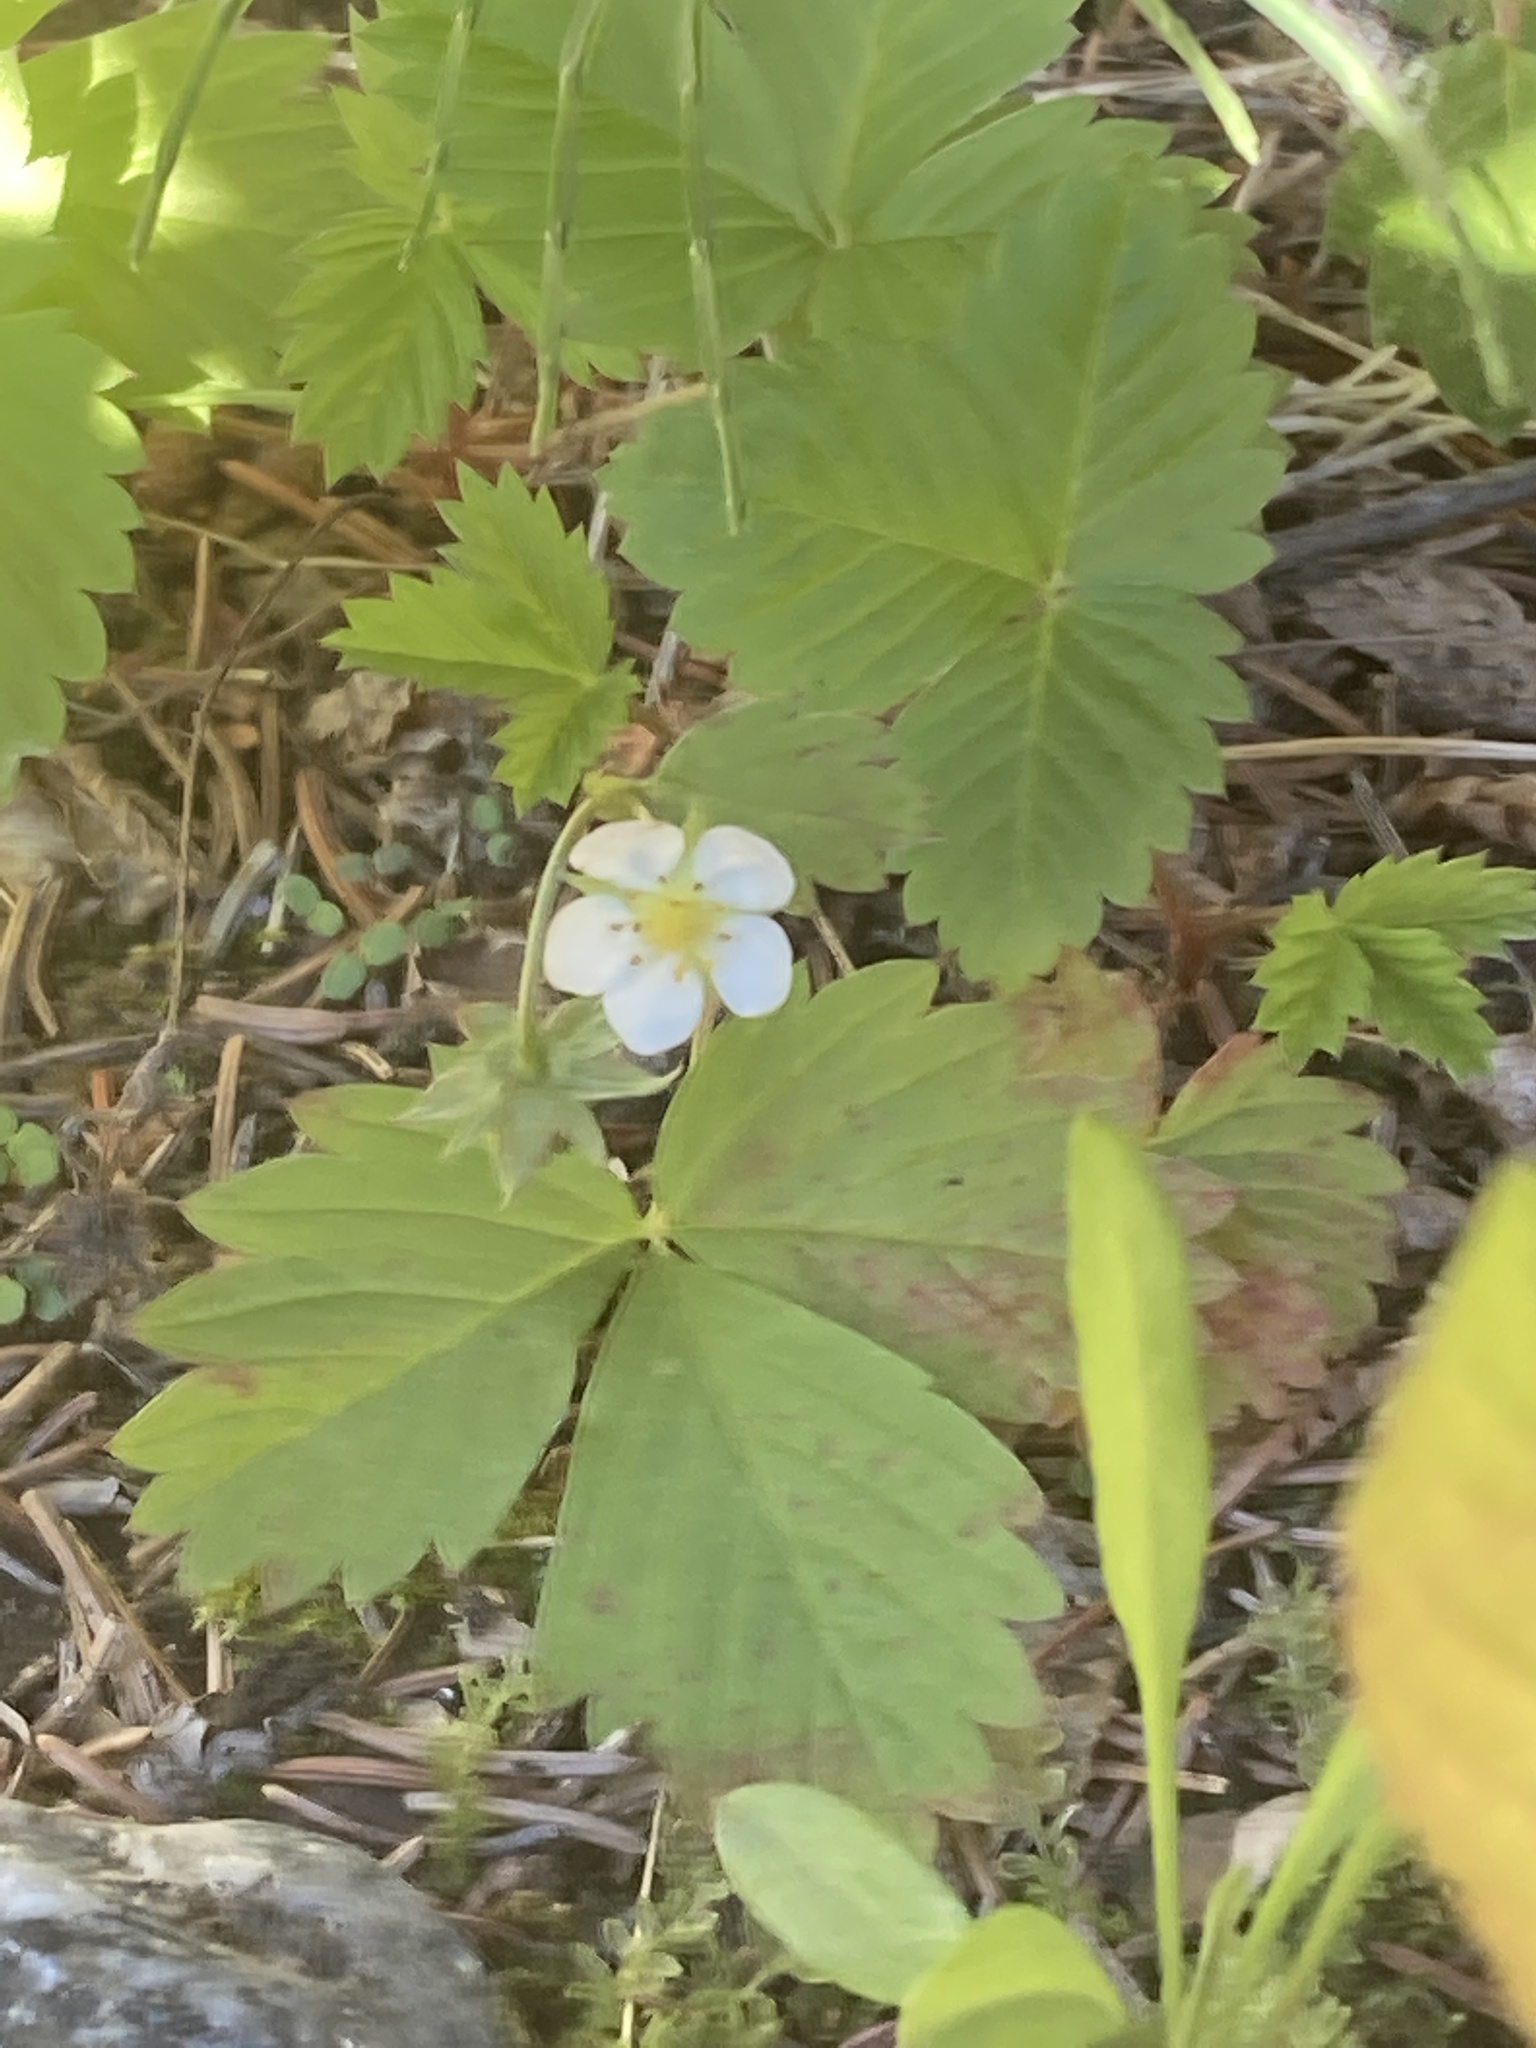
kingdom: Plantae
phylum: Tracheophyta
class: Magnoliopsida
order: Rosales
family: Rosaceae
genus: Fragaria
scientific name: Fragaria vesca
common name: Wild strawberry
